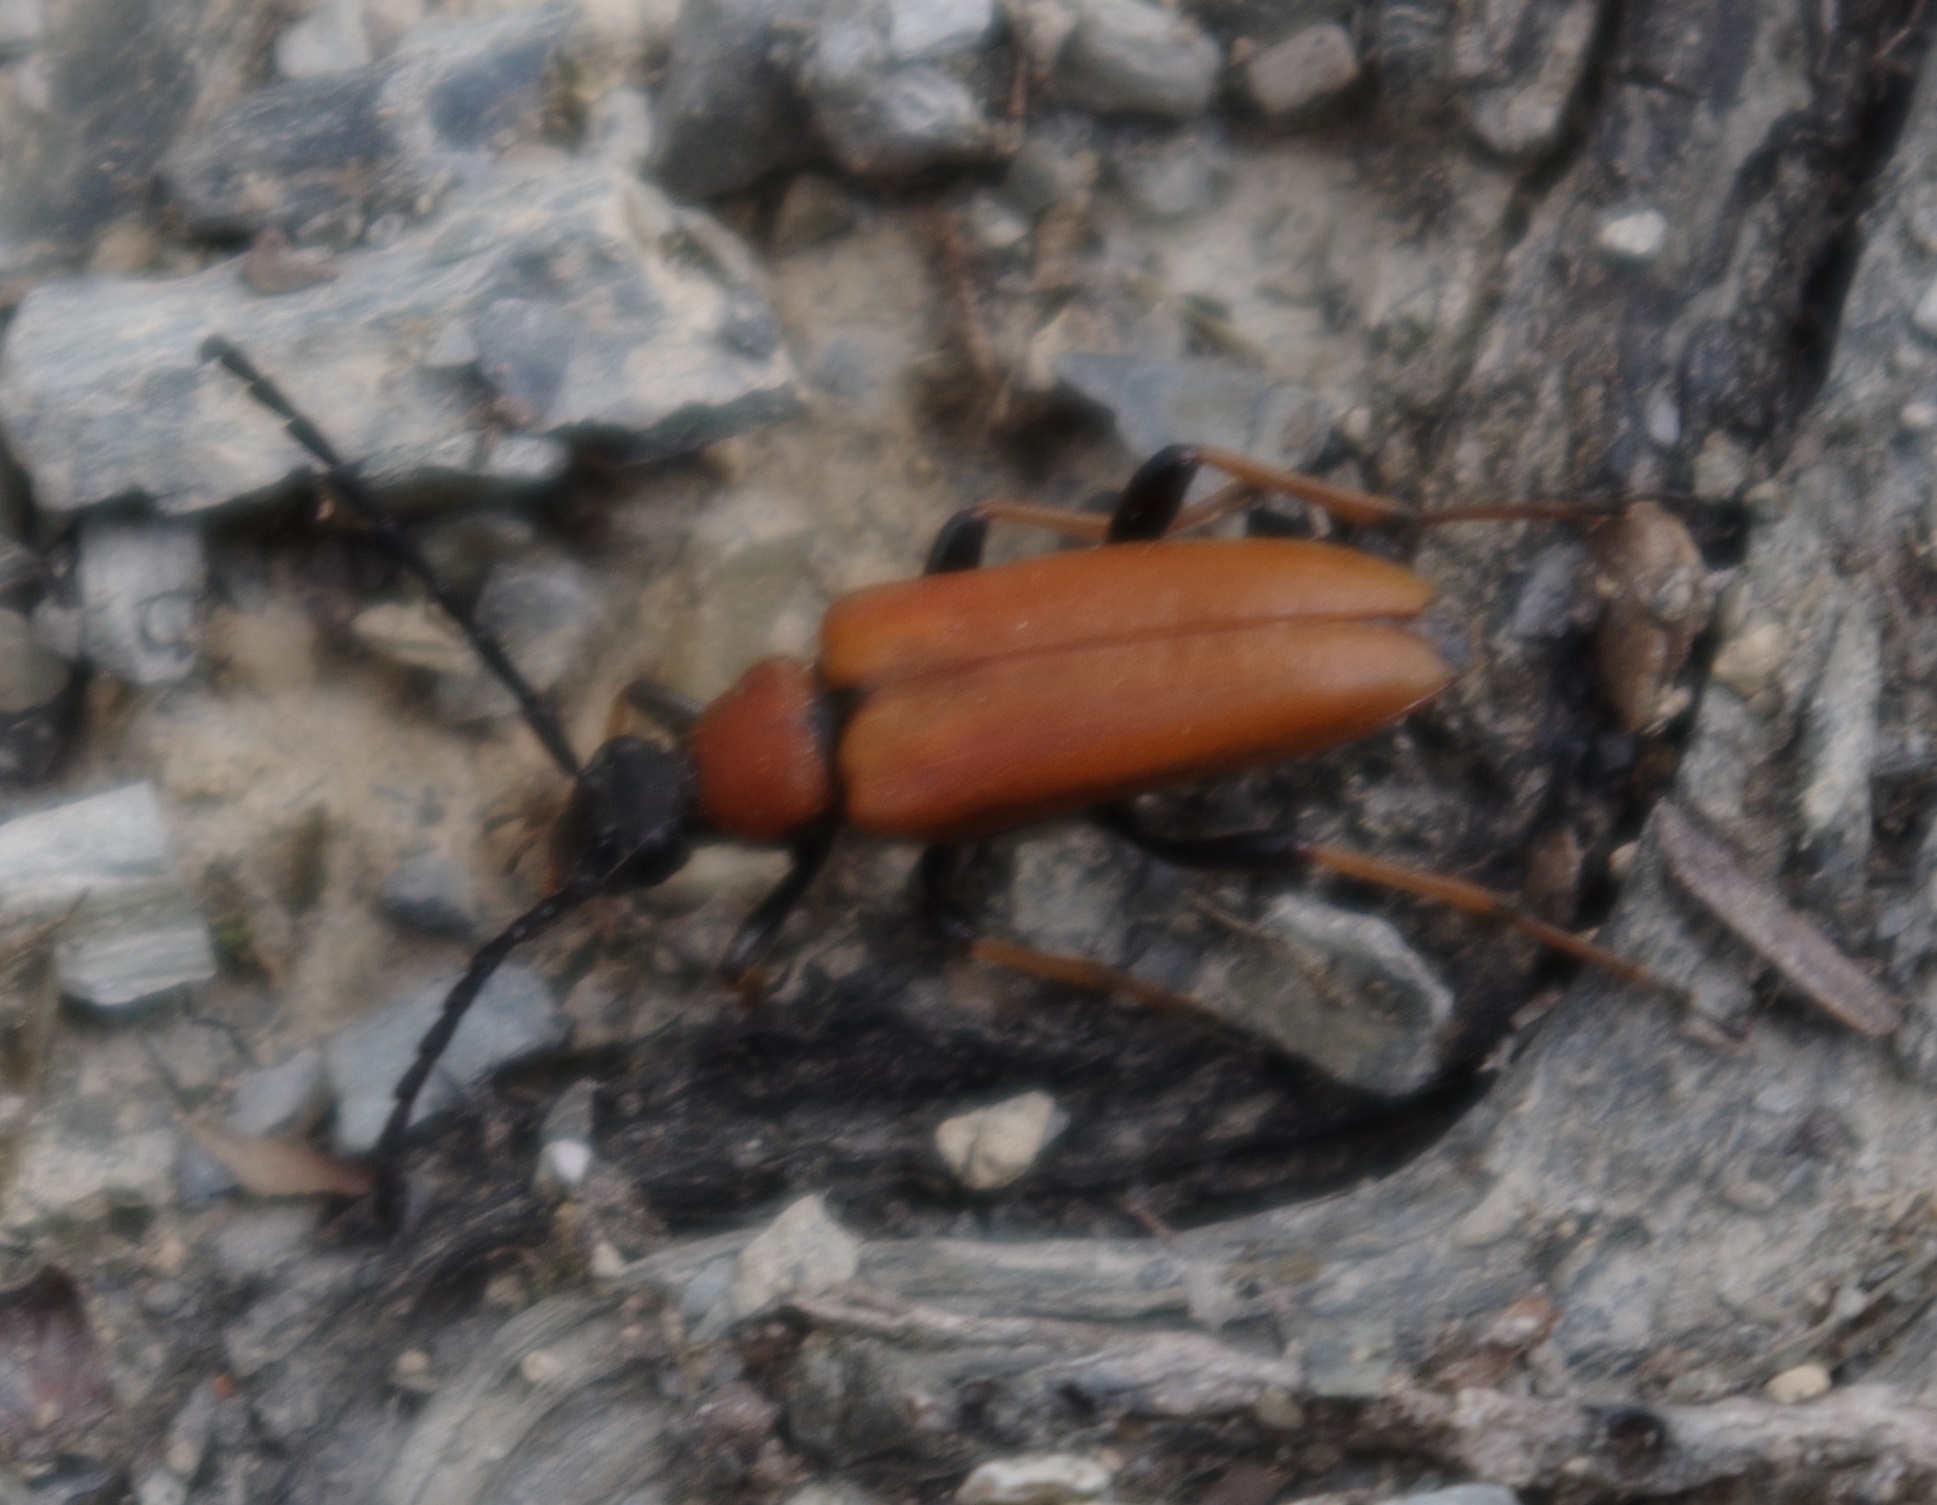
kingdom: Animalia
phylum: Arthropoda
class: Insecta
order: Coleoptera
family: Cerambycidae
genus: Stictoleptura
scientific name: Stictoleptura rubra
